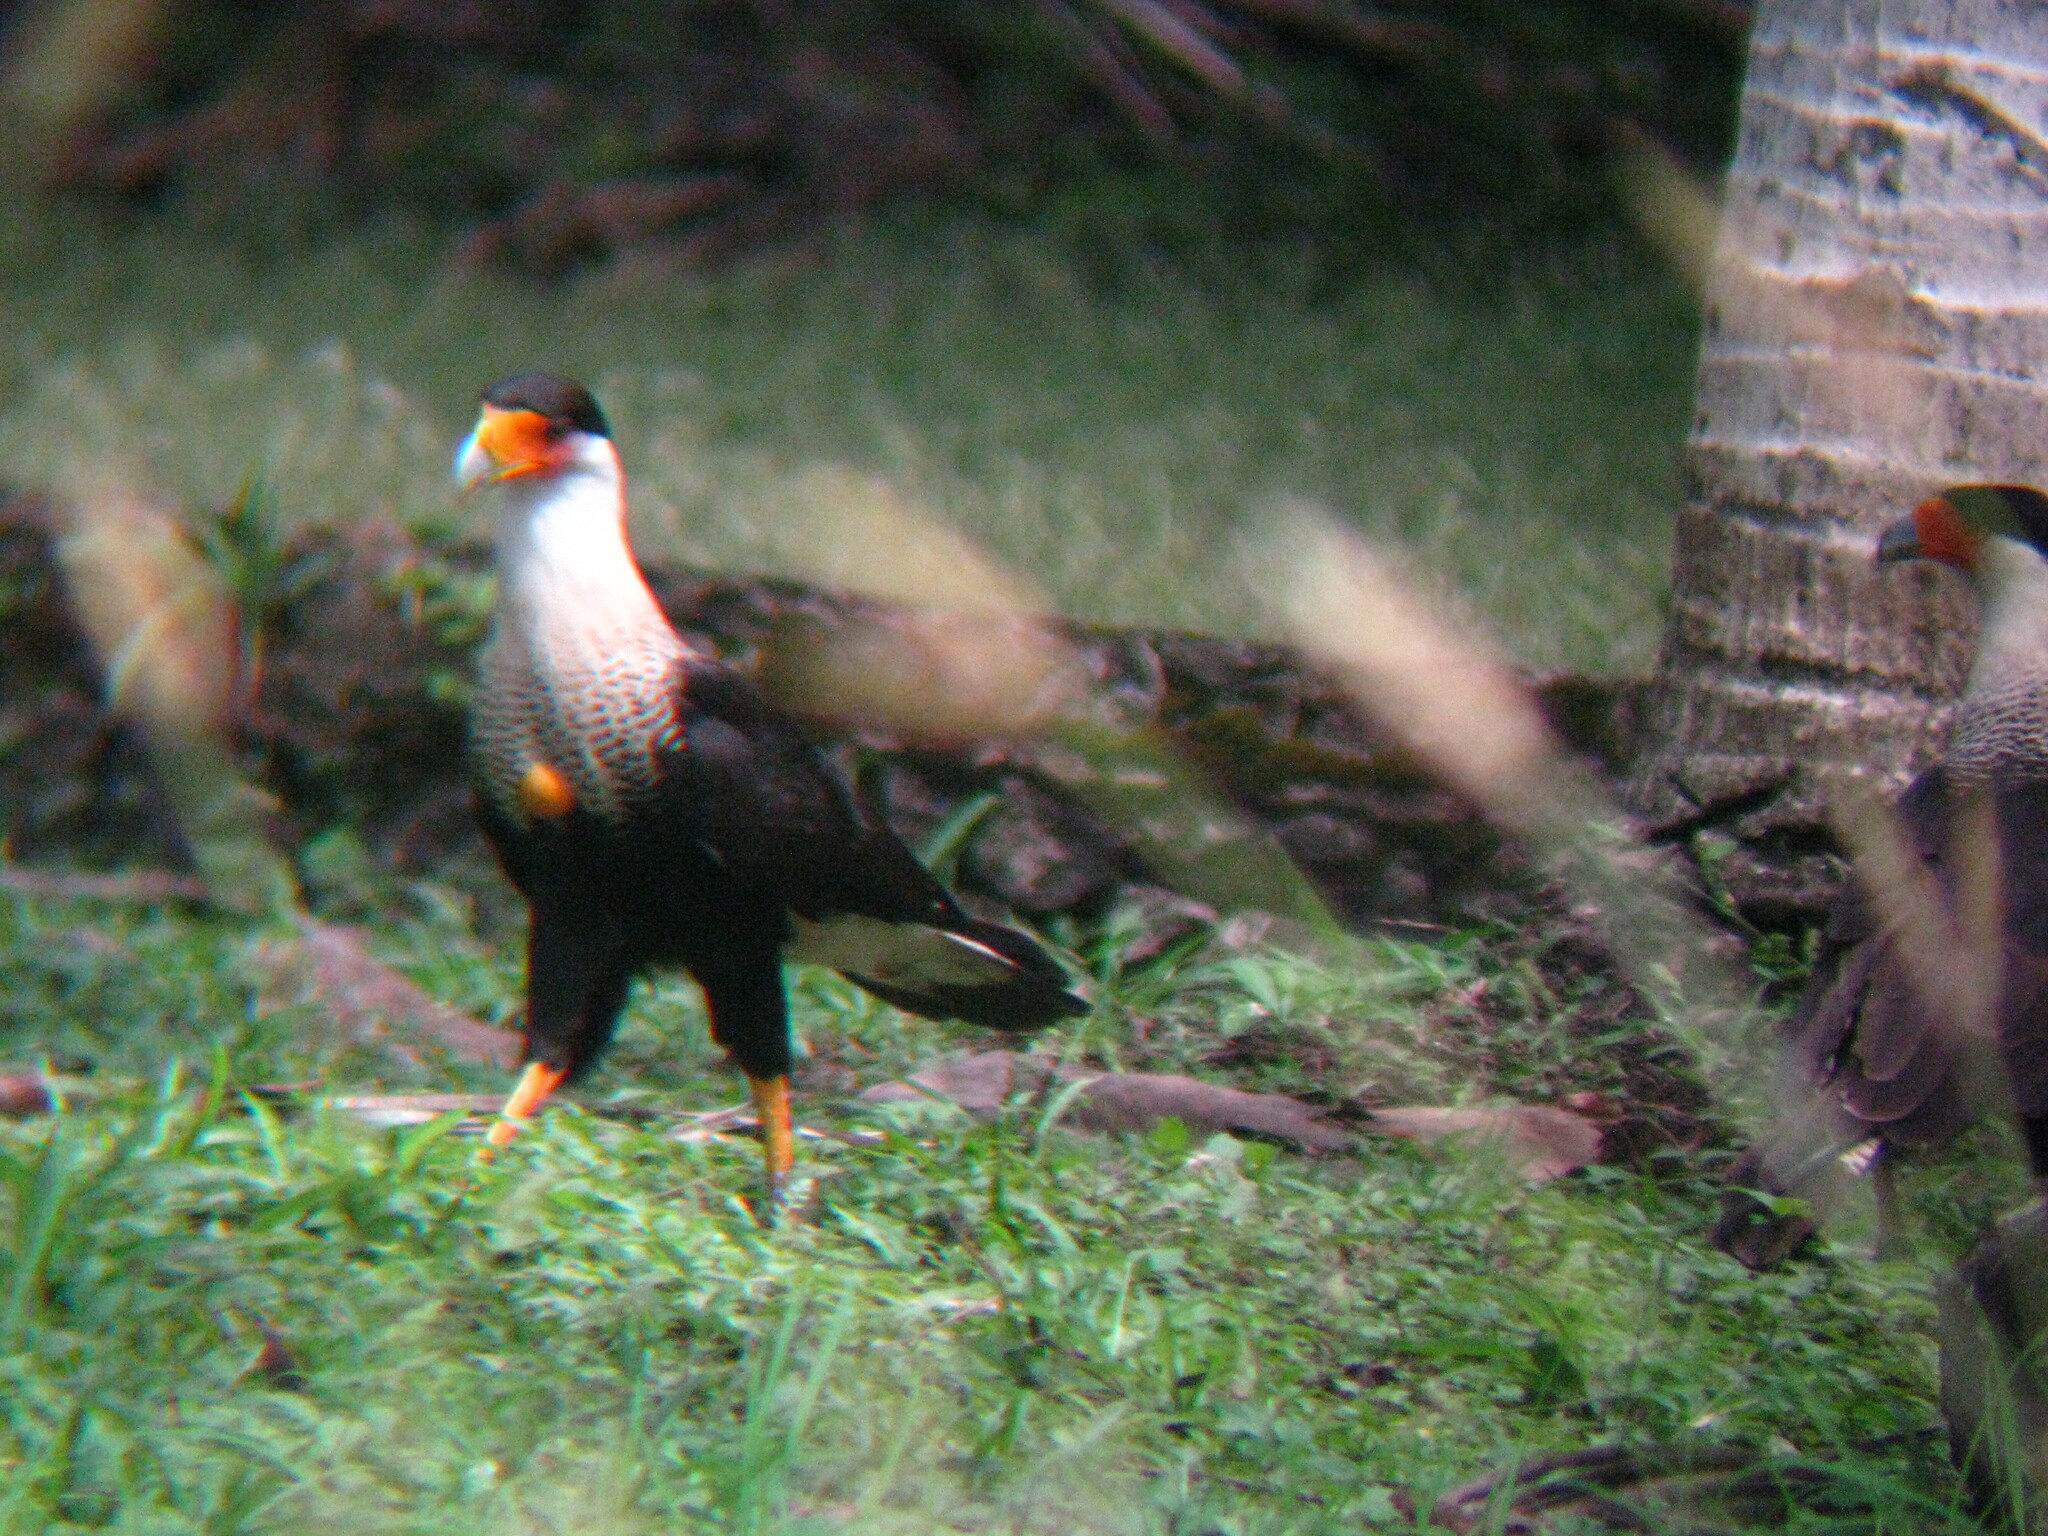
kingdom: Animalia
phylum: Chordata
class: Aves
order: Falconiformes
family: Falconidae
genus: Caracara
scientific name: Caracara plancus
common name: Southern caracara
